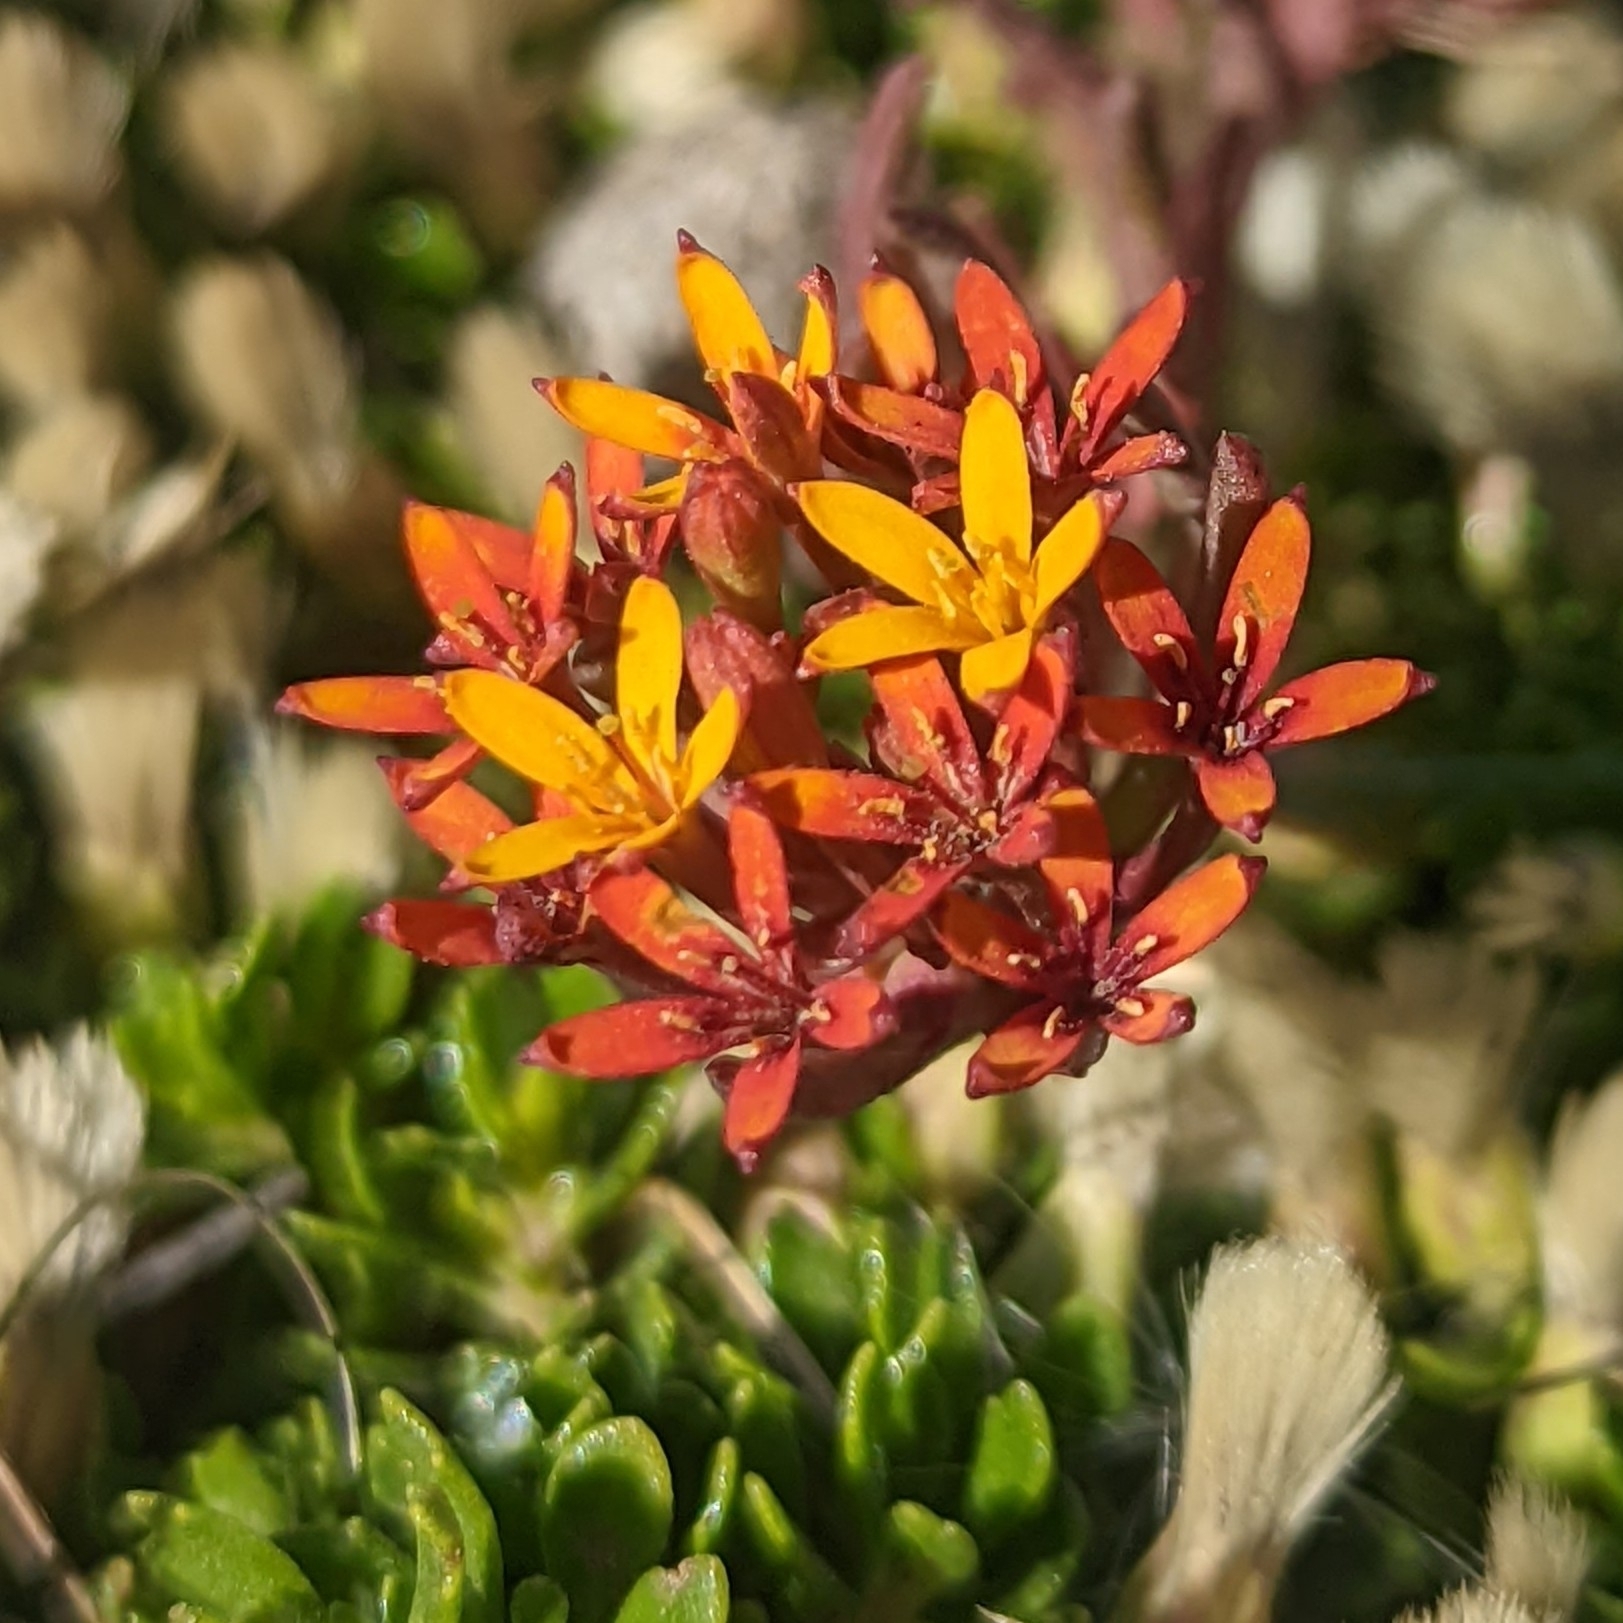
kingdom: Plantae
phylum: Tracheophyta
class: Magnoliopsida
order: Santalales
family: Schoepfiaceae
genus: Quinchamalium
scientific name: Quinchamalium chilense
